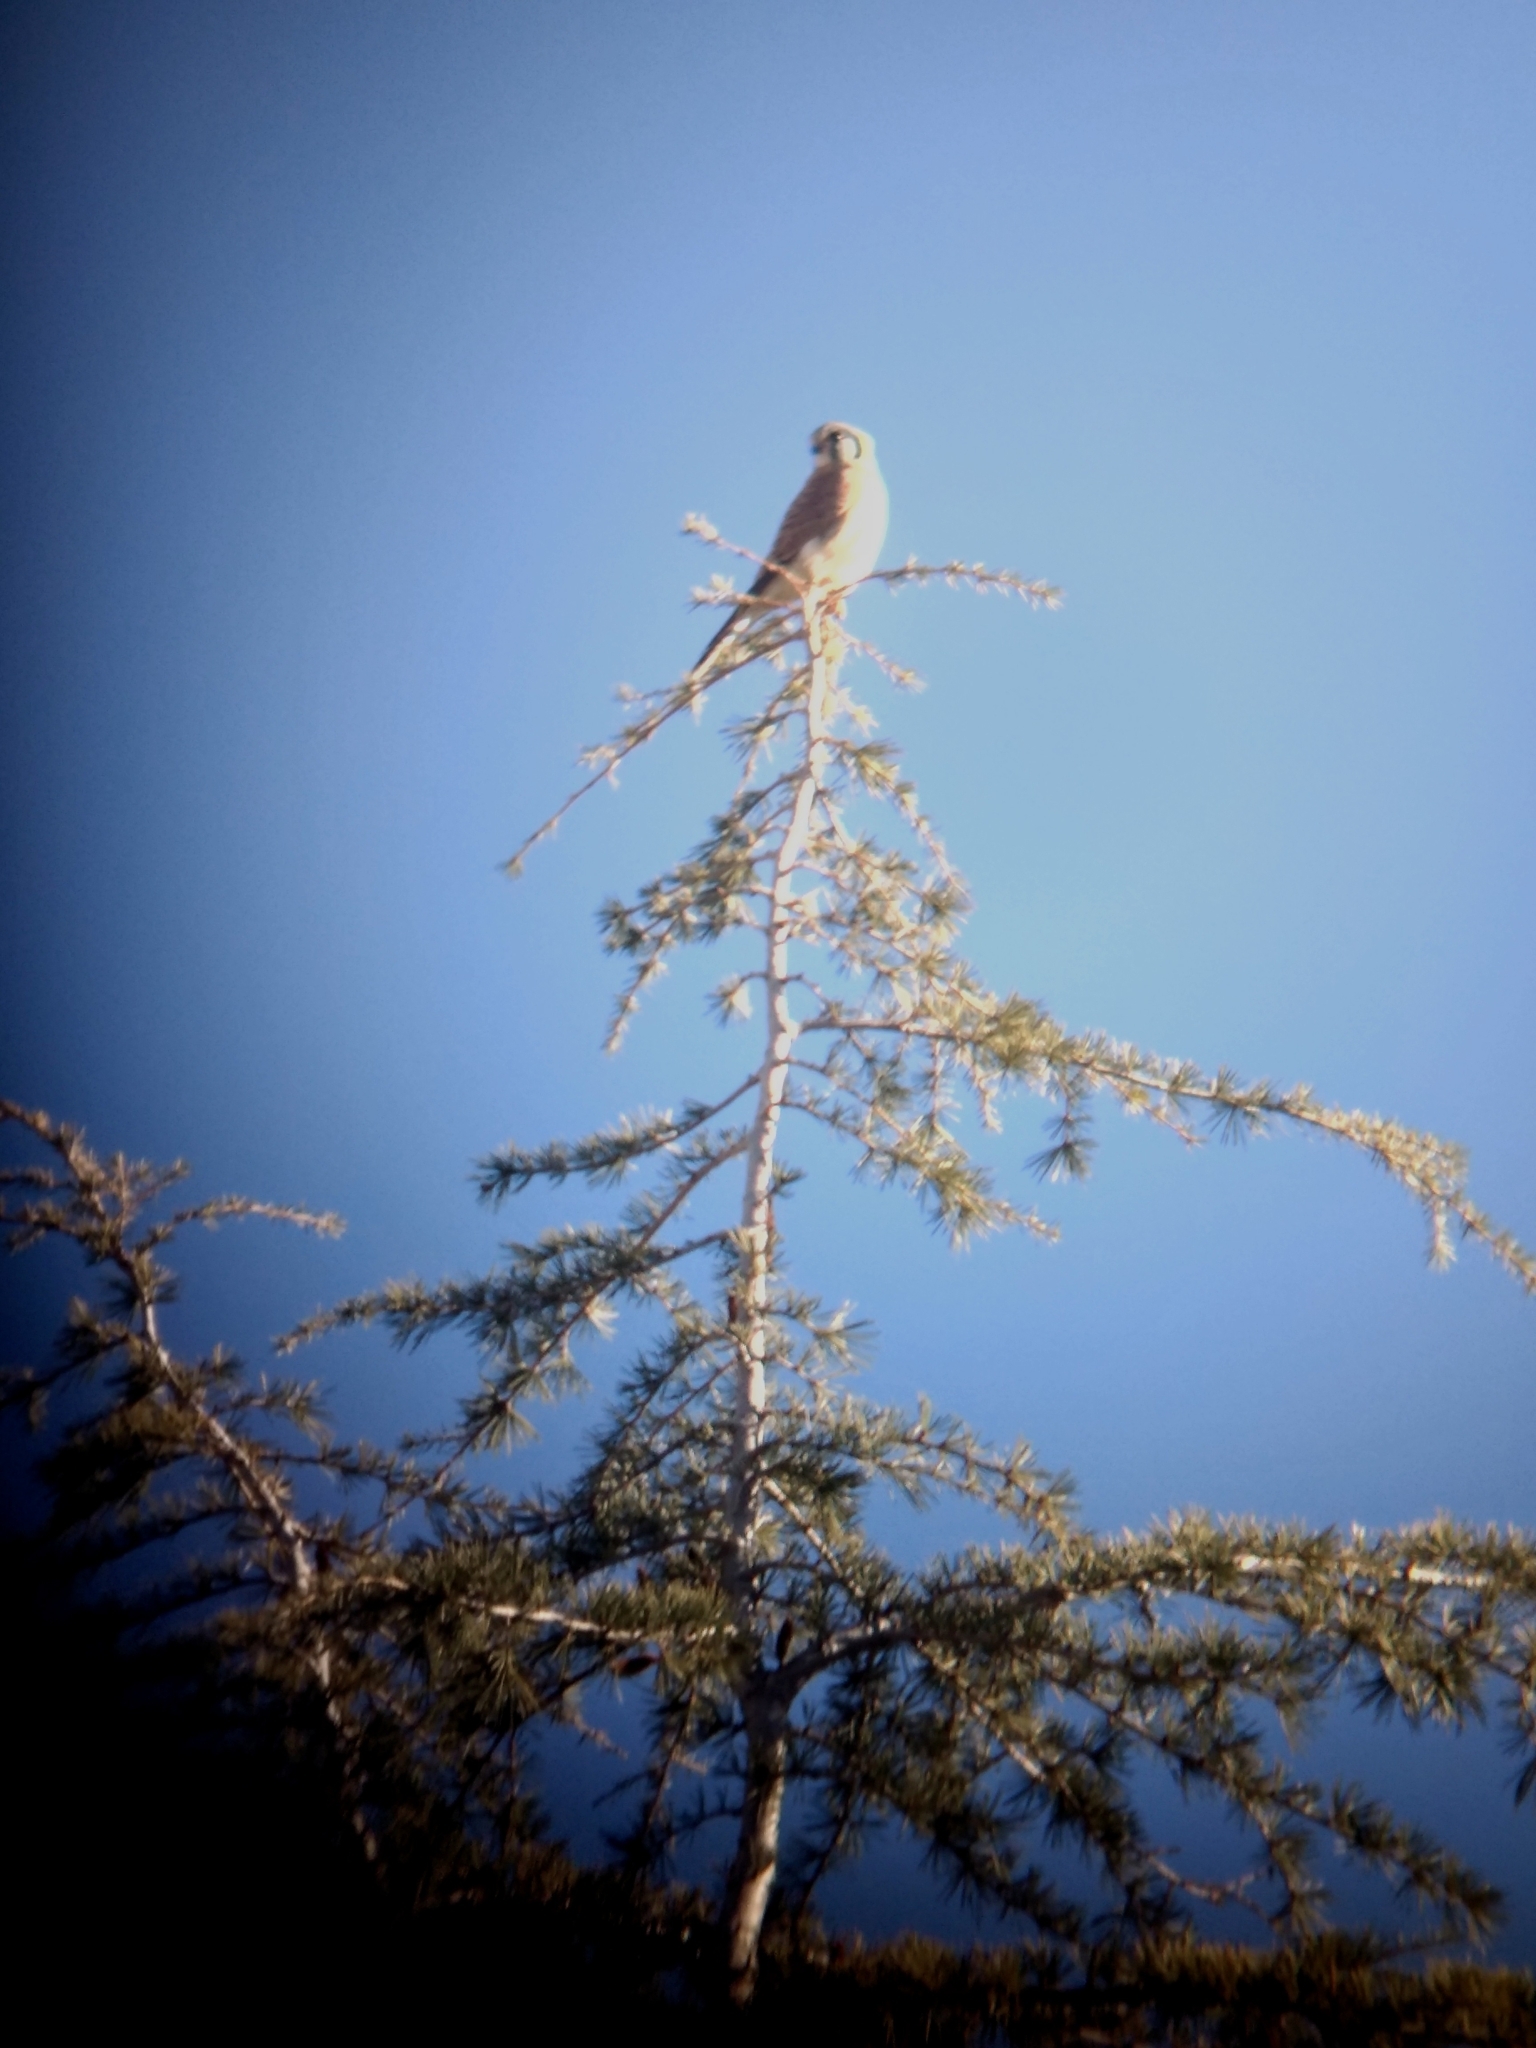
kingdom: Animalia
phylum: Chordata
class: Aves
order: Falconiformes
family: Falconidae
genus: Falco
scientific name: Falco sparverius
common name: American kestrel
